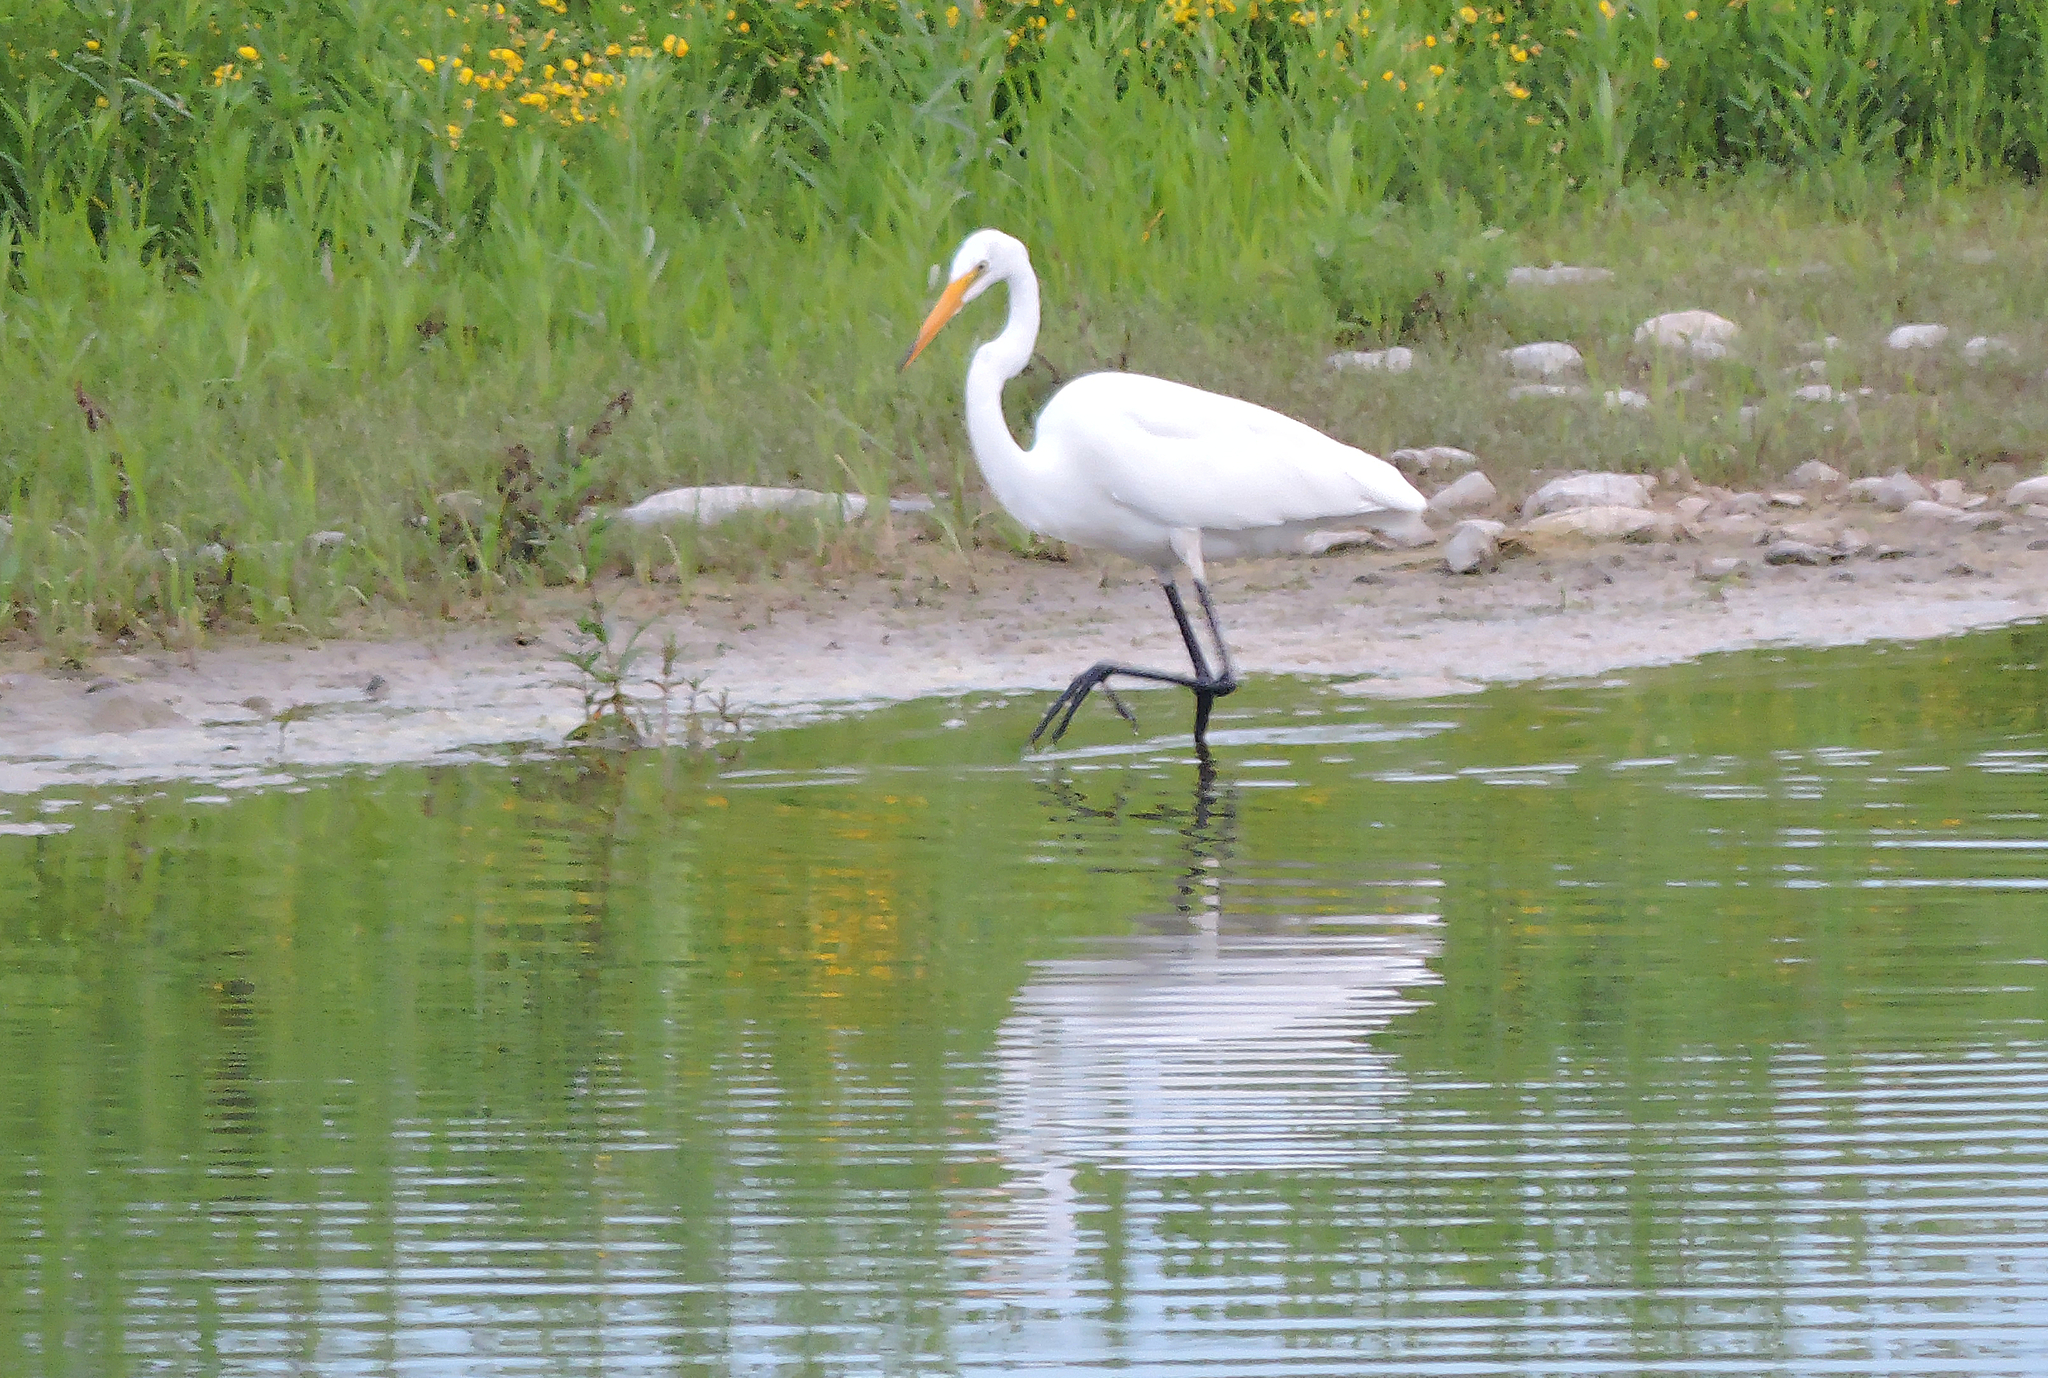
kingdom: Animalia
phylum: Chordata
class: Aves
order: Pelecaniformes
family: Ardeidae
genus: Ardea
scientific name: Ardea alba
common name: Great egret
